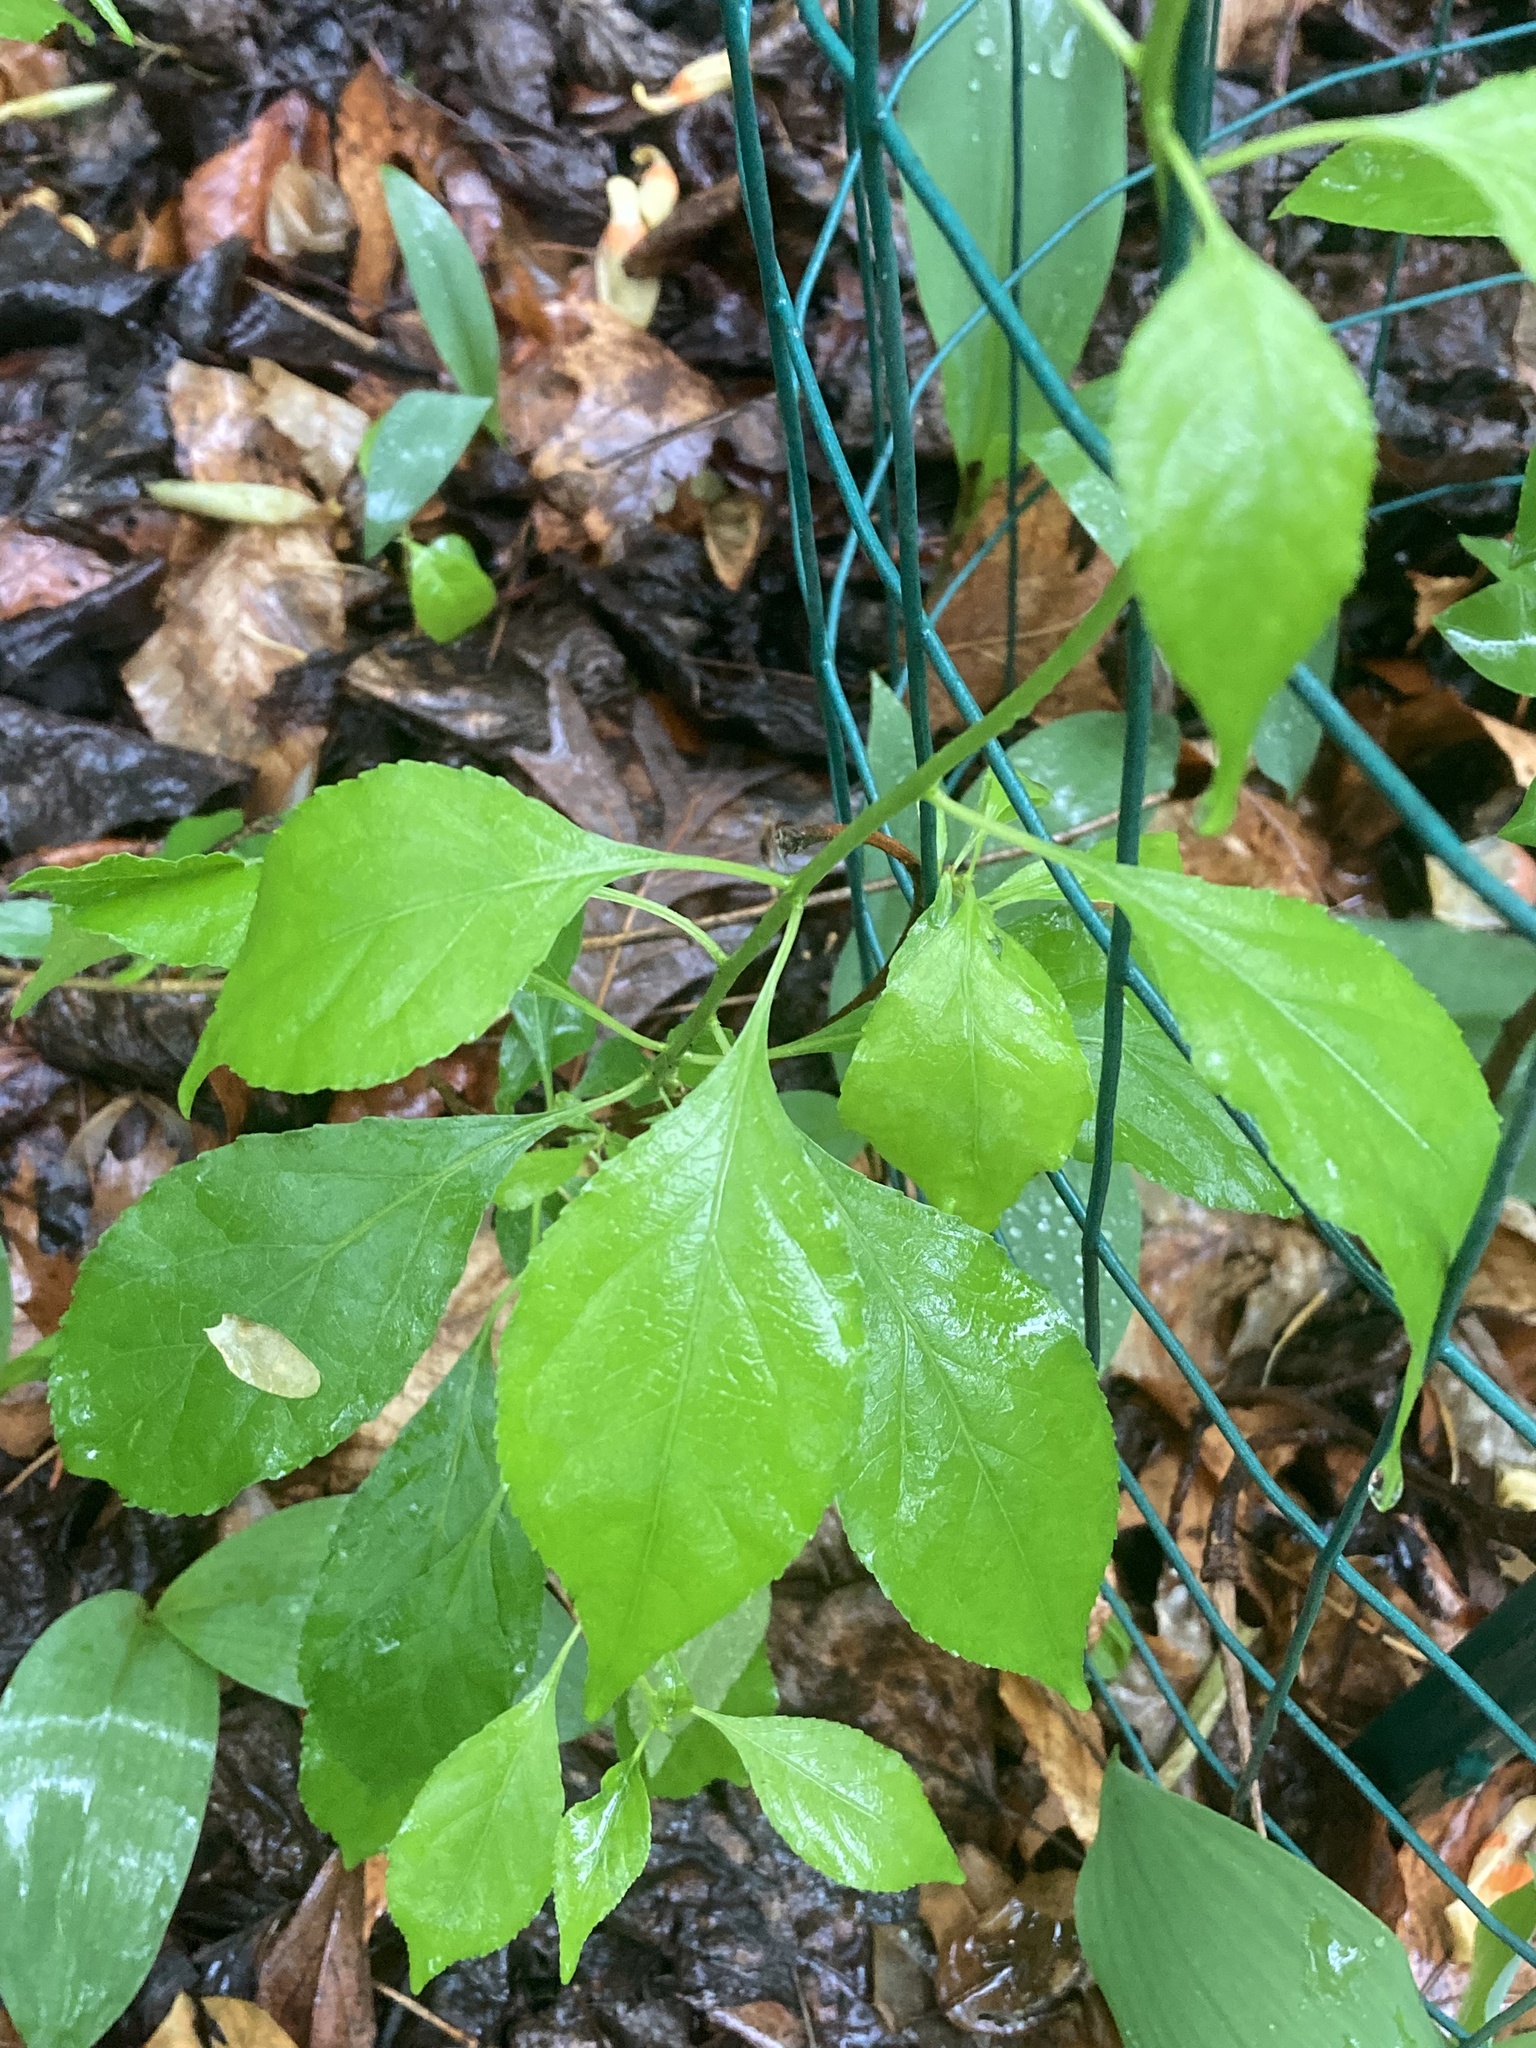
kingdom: Plantae
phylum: Tracheophyta
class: Magnoliopsida
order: Celastrales
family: Celastraceae
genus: Celastrus
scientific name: Celastrus orbiculatus
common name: Oriental bittersweet
